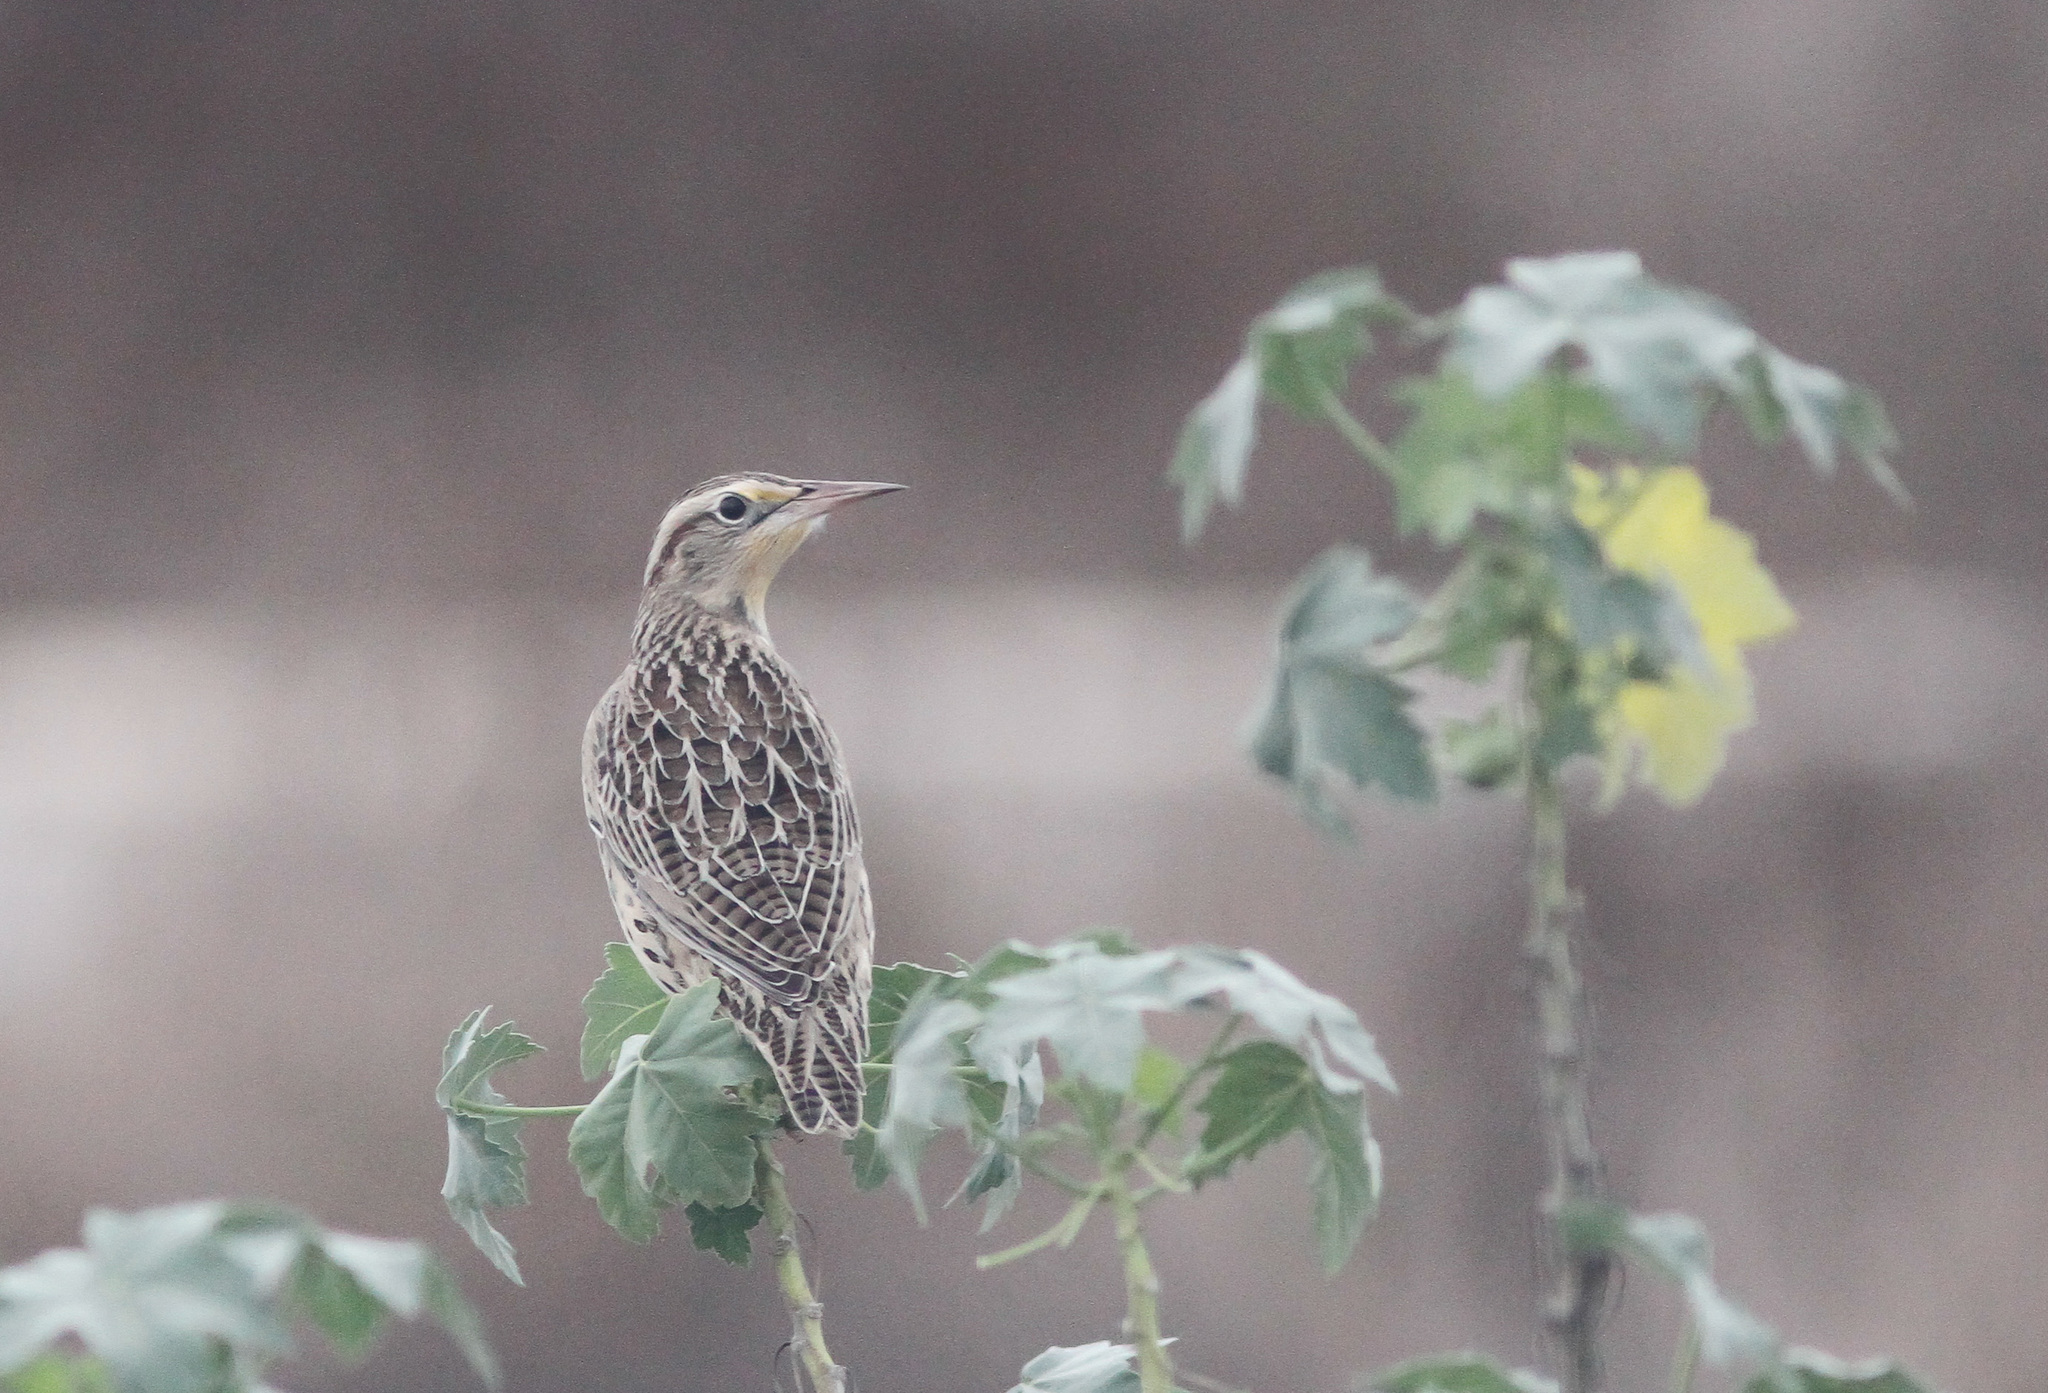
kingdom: Animalia
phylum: Chordata
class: Aves
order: Passeriformes
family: Icteridae
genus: Sturnella
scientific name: Sturnella neglecta
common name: Western meadowlark
